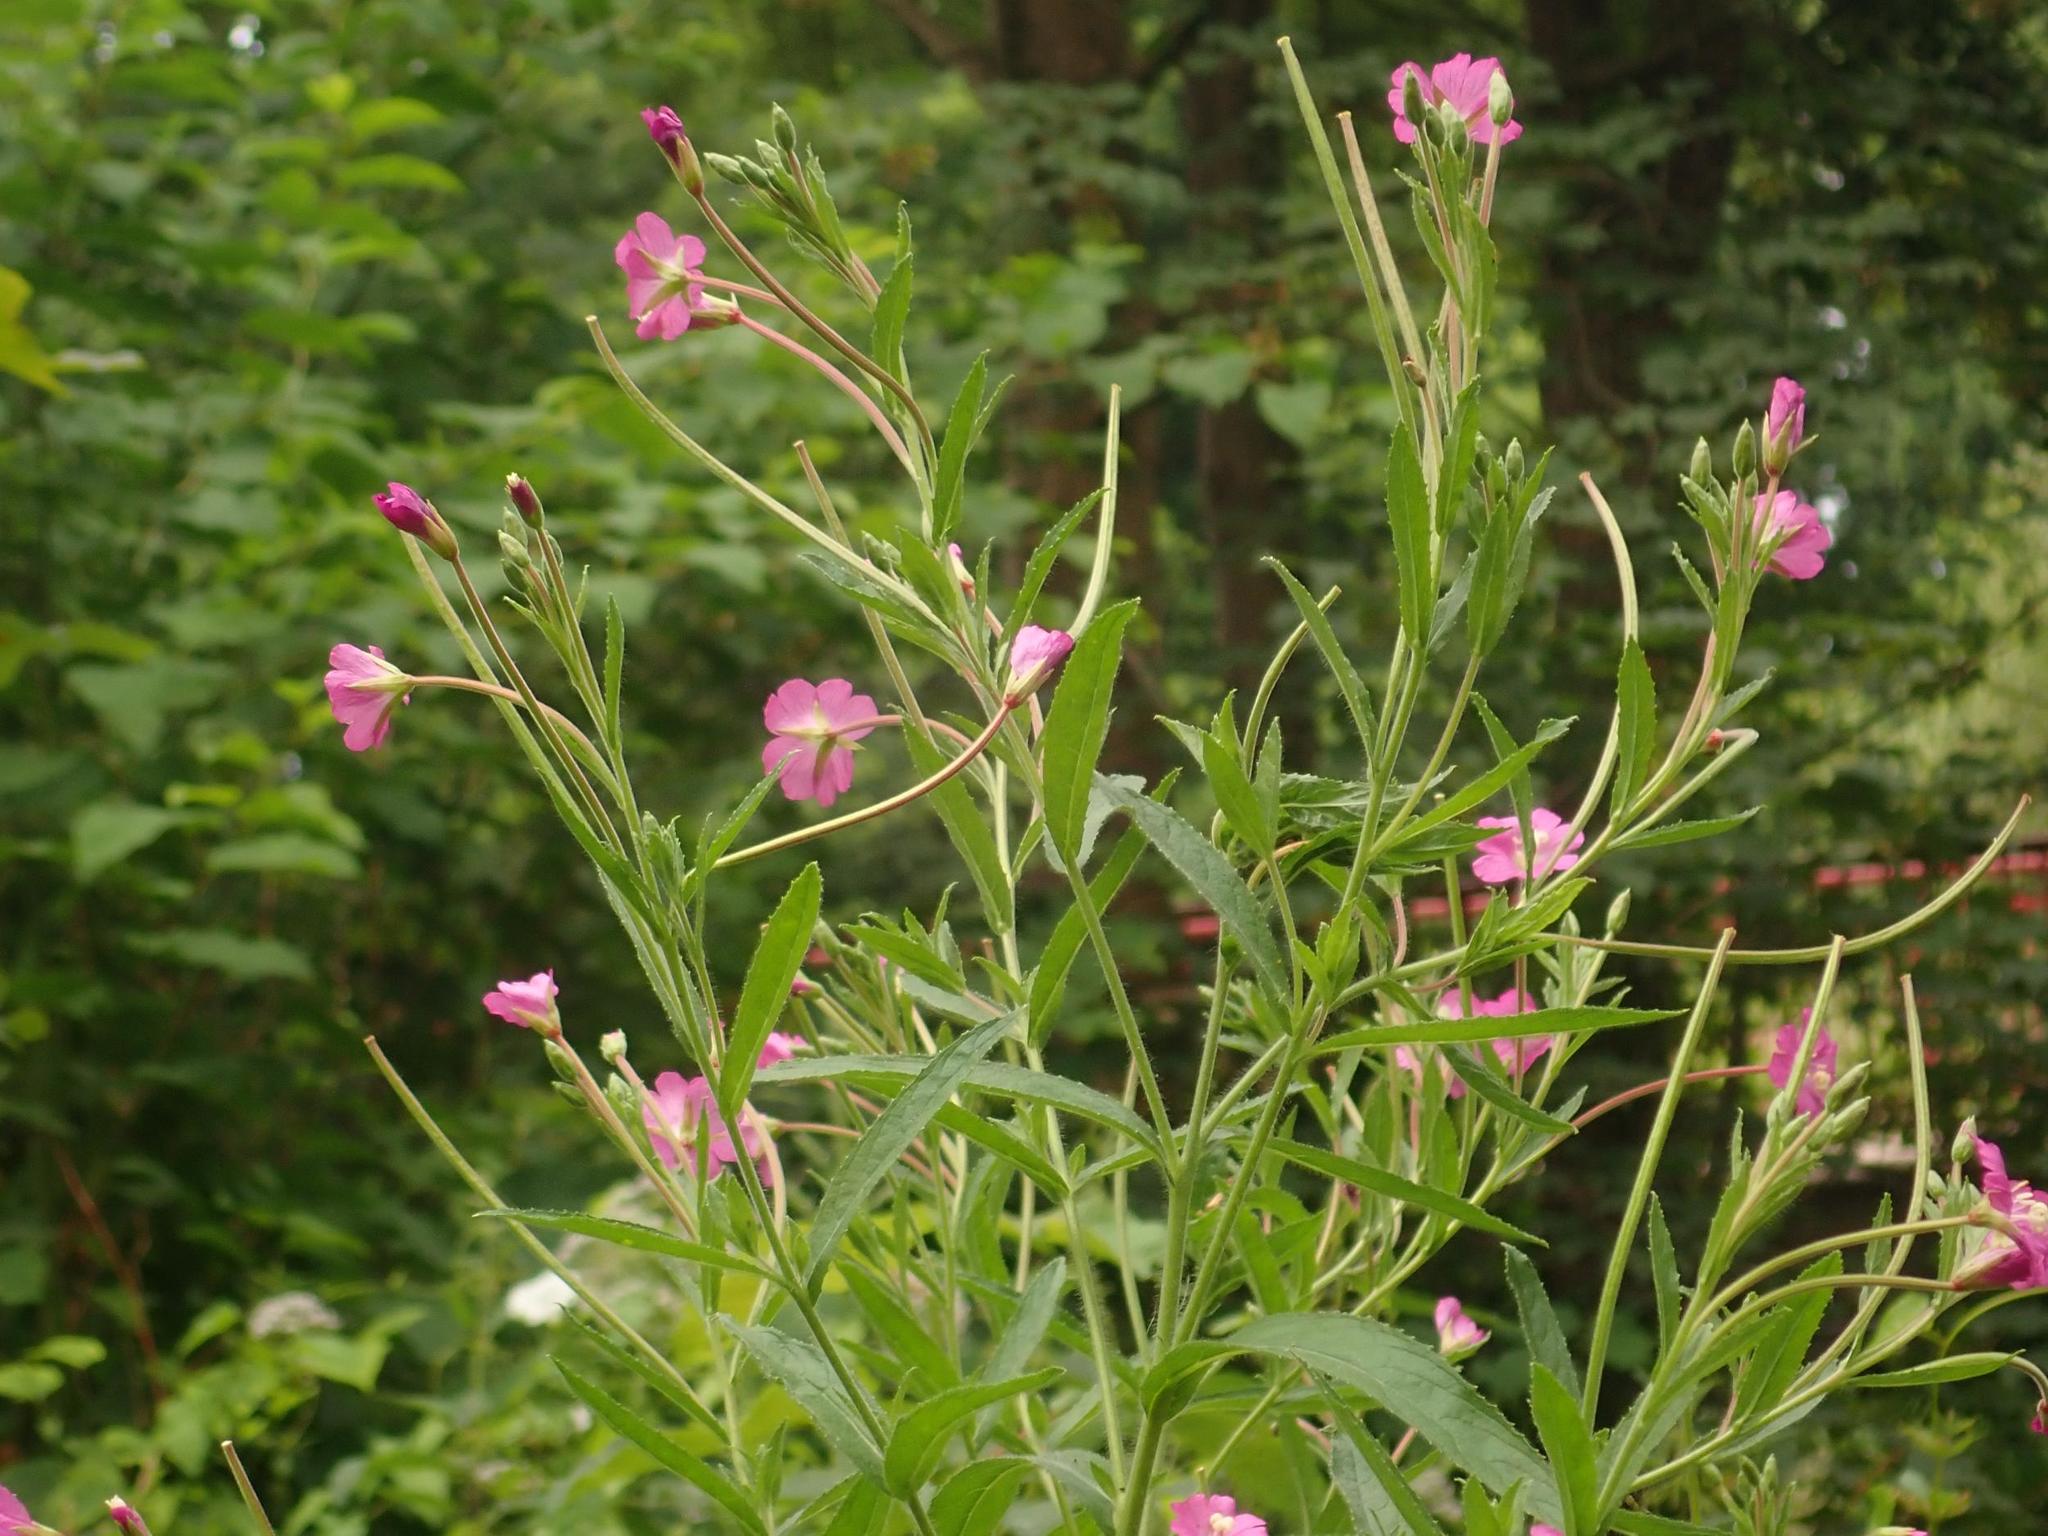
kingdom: Plantae
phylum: Tracheophyta
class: Magnoliopsida
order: Myrtales
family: Onagraceae
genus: Epilobium
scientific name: Epilobium hirsutum
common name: Great willowherb
